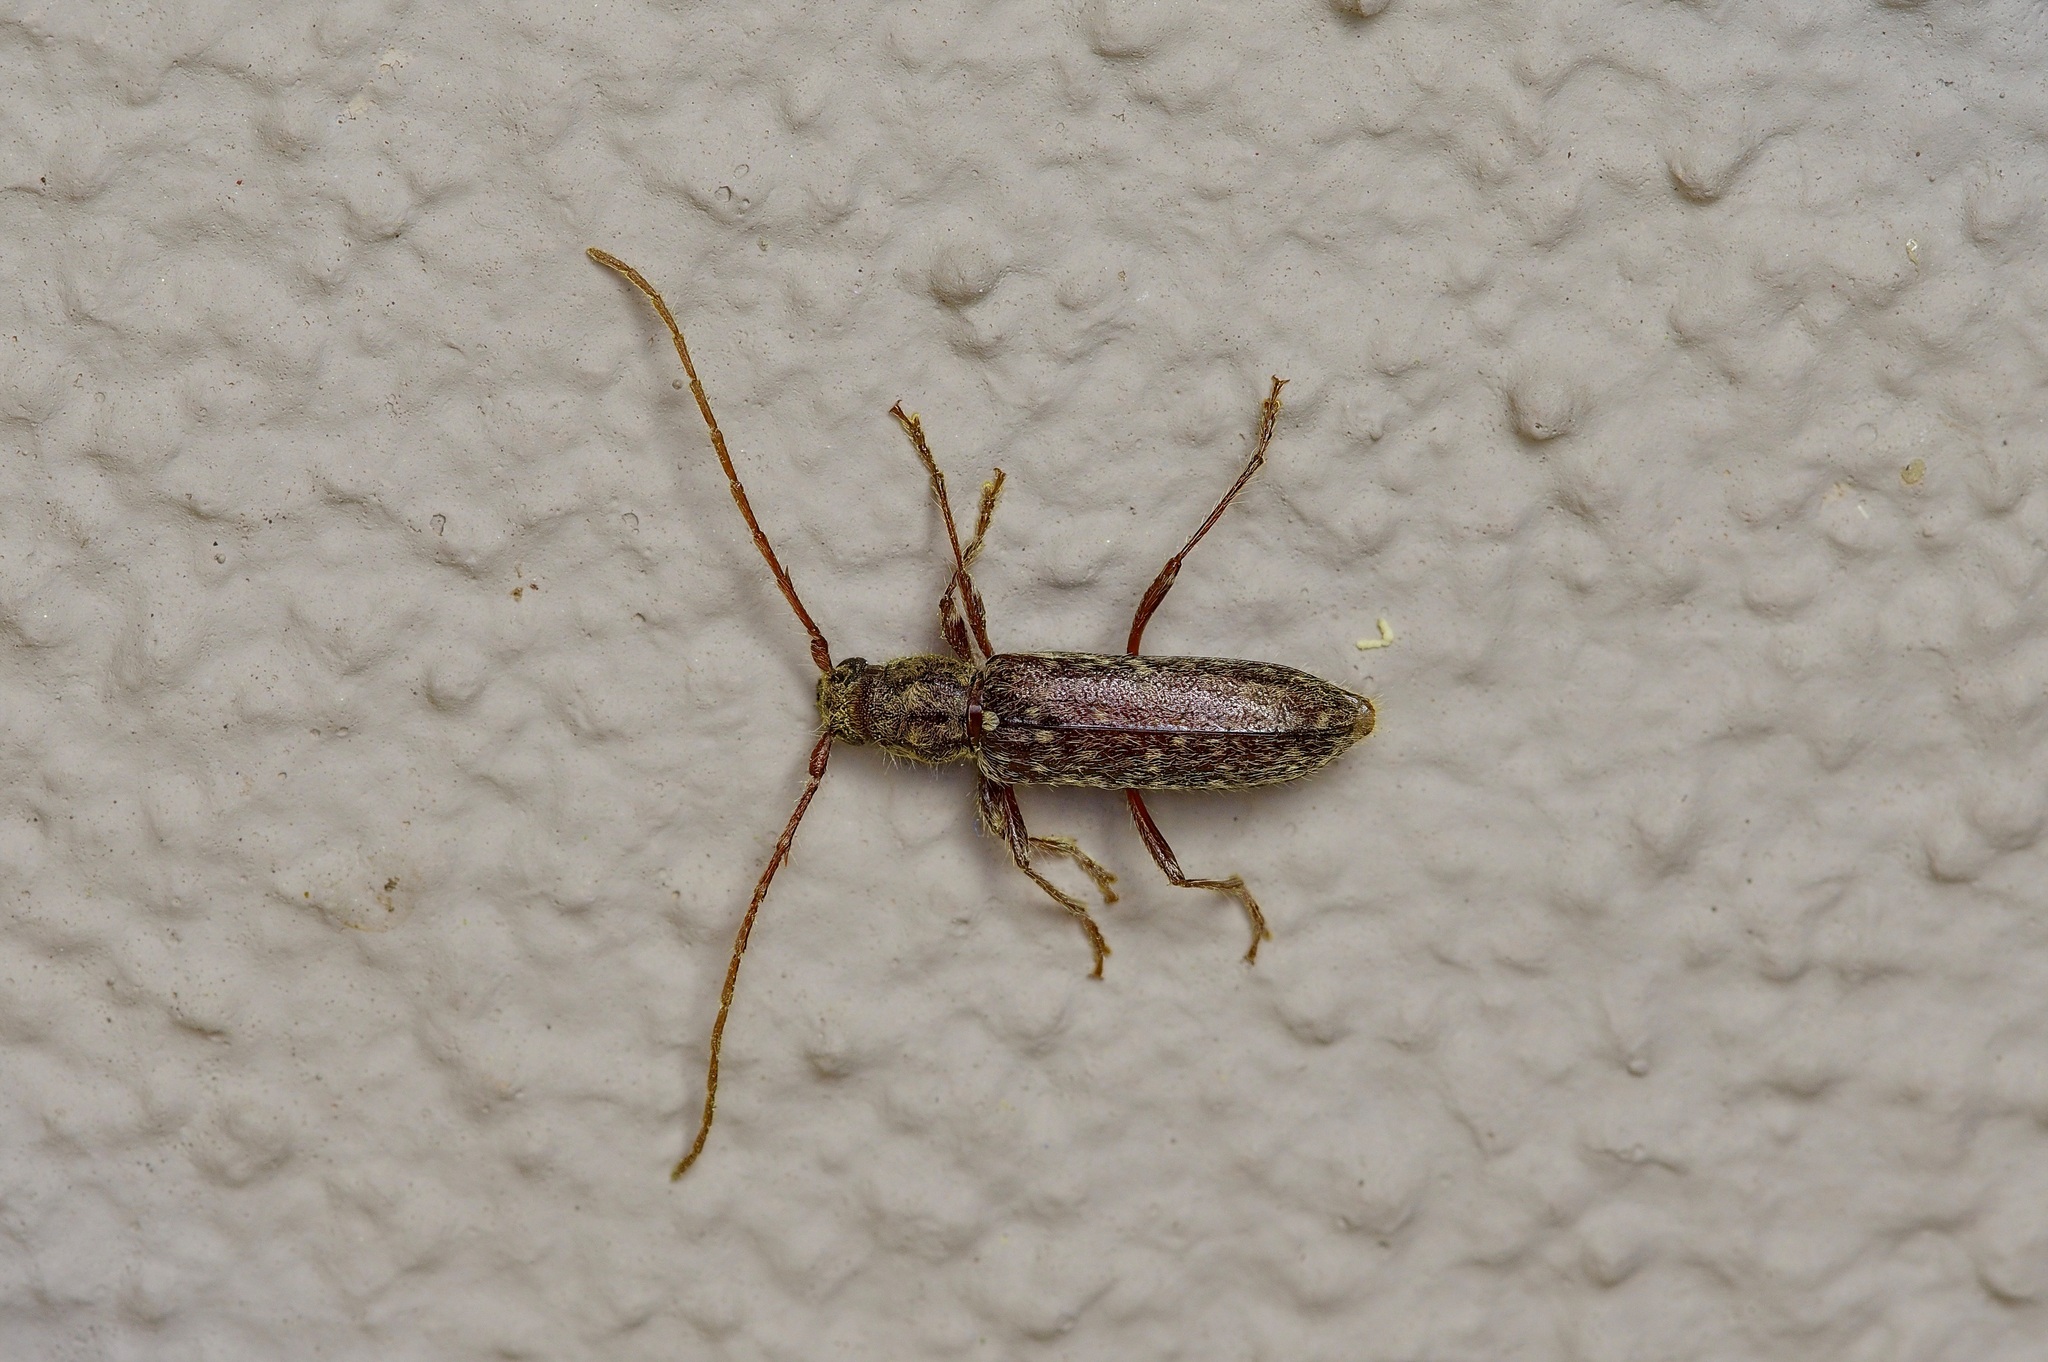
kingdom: Animalia
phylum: Arthropoda
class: Insecta
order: Coleoptera
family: Cerambycidae
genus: Anelaphus
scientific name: Anelaphus pumilus
